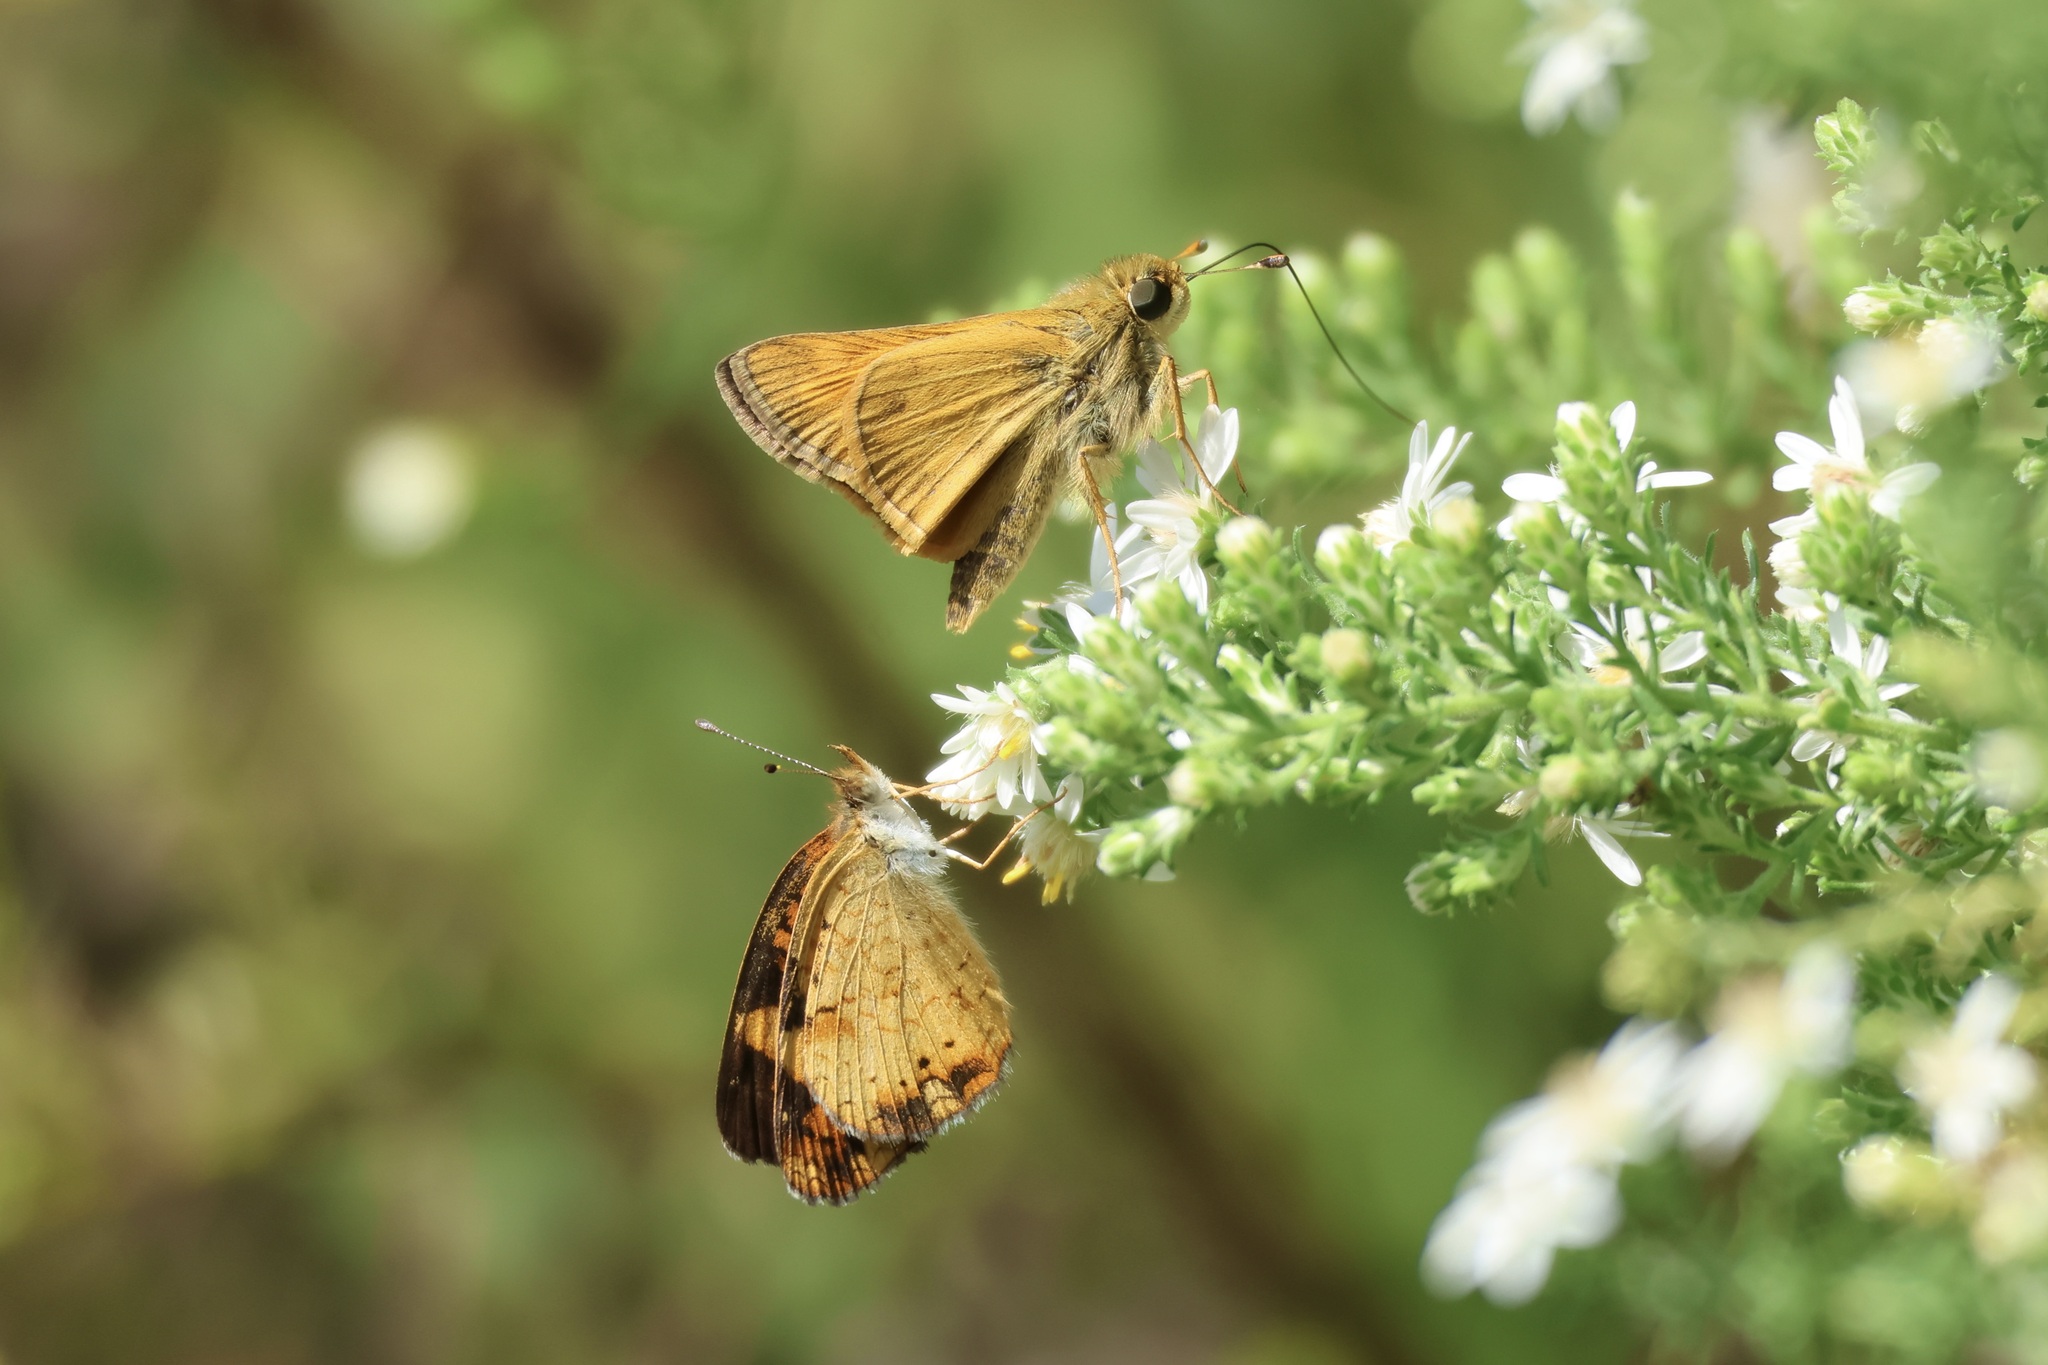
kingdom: Animalia
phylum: Arthropoda
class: Insecta
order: Lepidoptera
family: Nymphalidae
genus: Phyciodes
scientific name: Phyciodes tharos
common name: Pearl crescent
